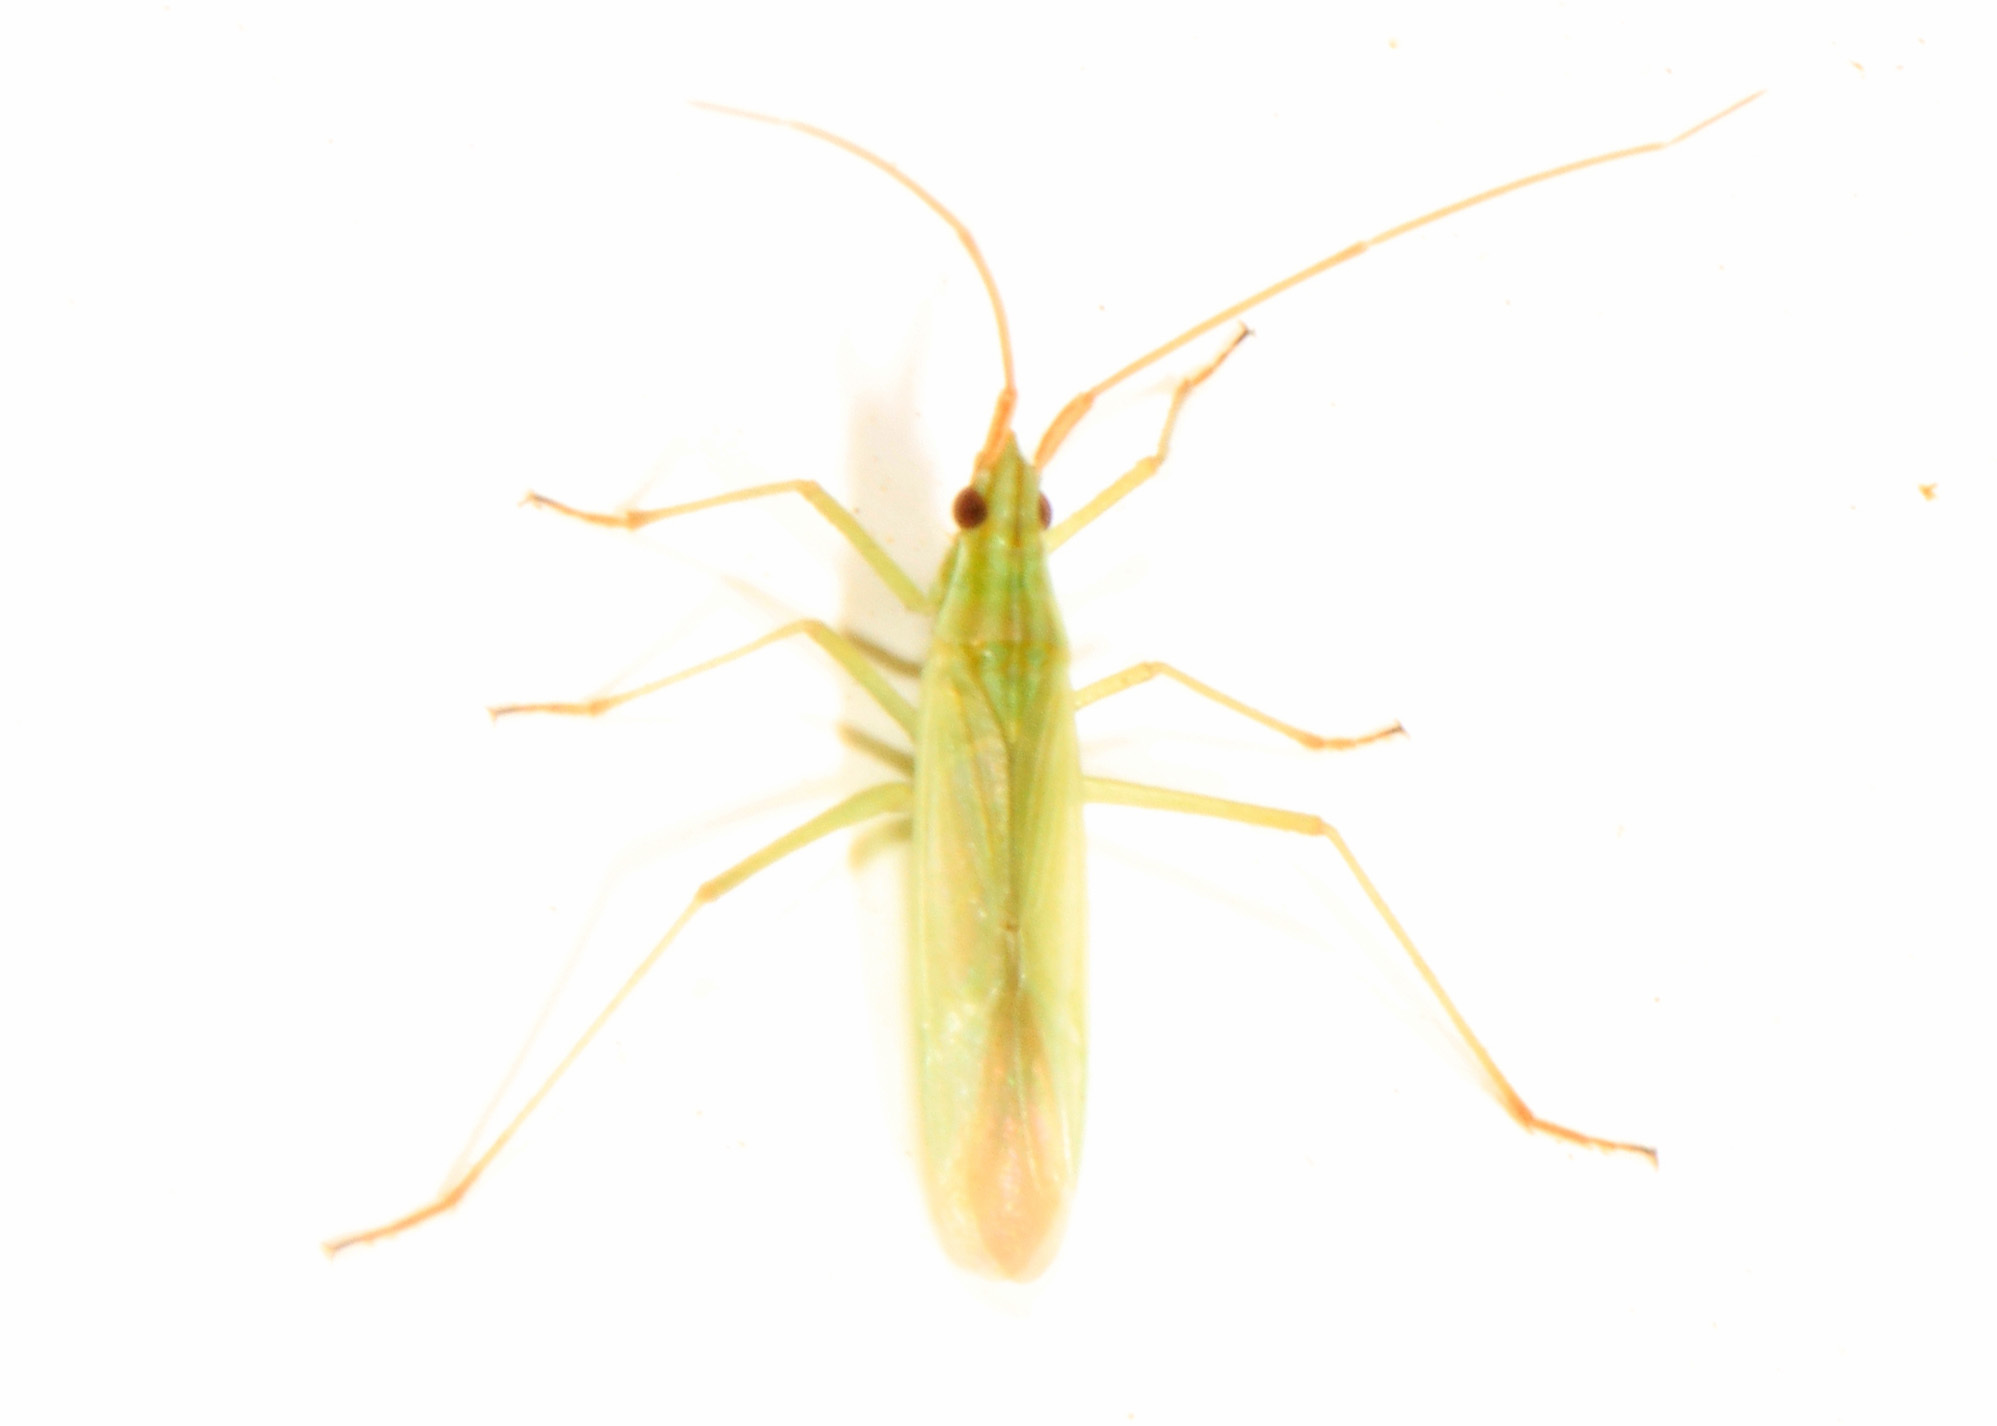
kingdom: Animalia
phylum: Arthropoda
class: Insecta
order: Hemiptera
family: Miridae
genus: Trigonotylus
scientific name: Trigonotylus caelestialium
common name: Rice leaf bug
